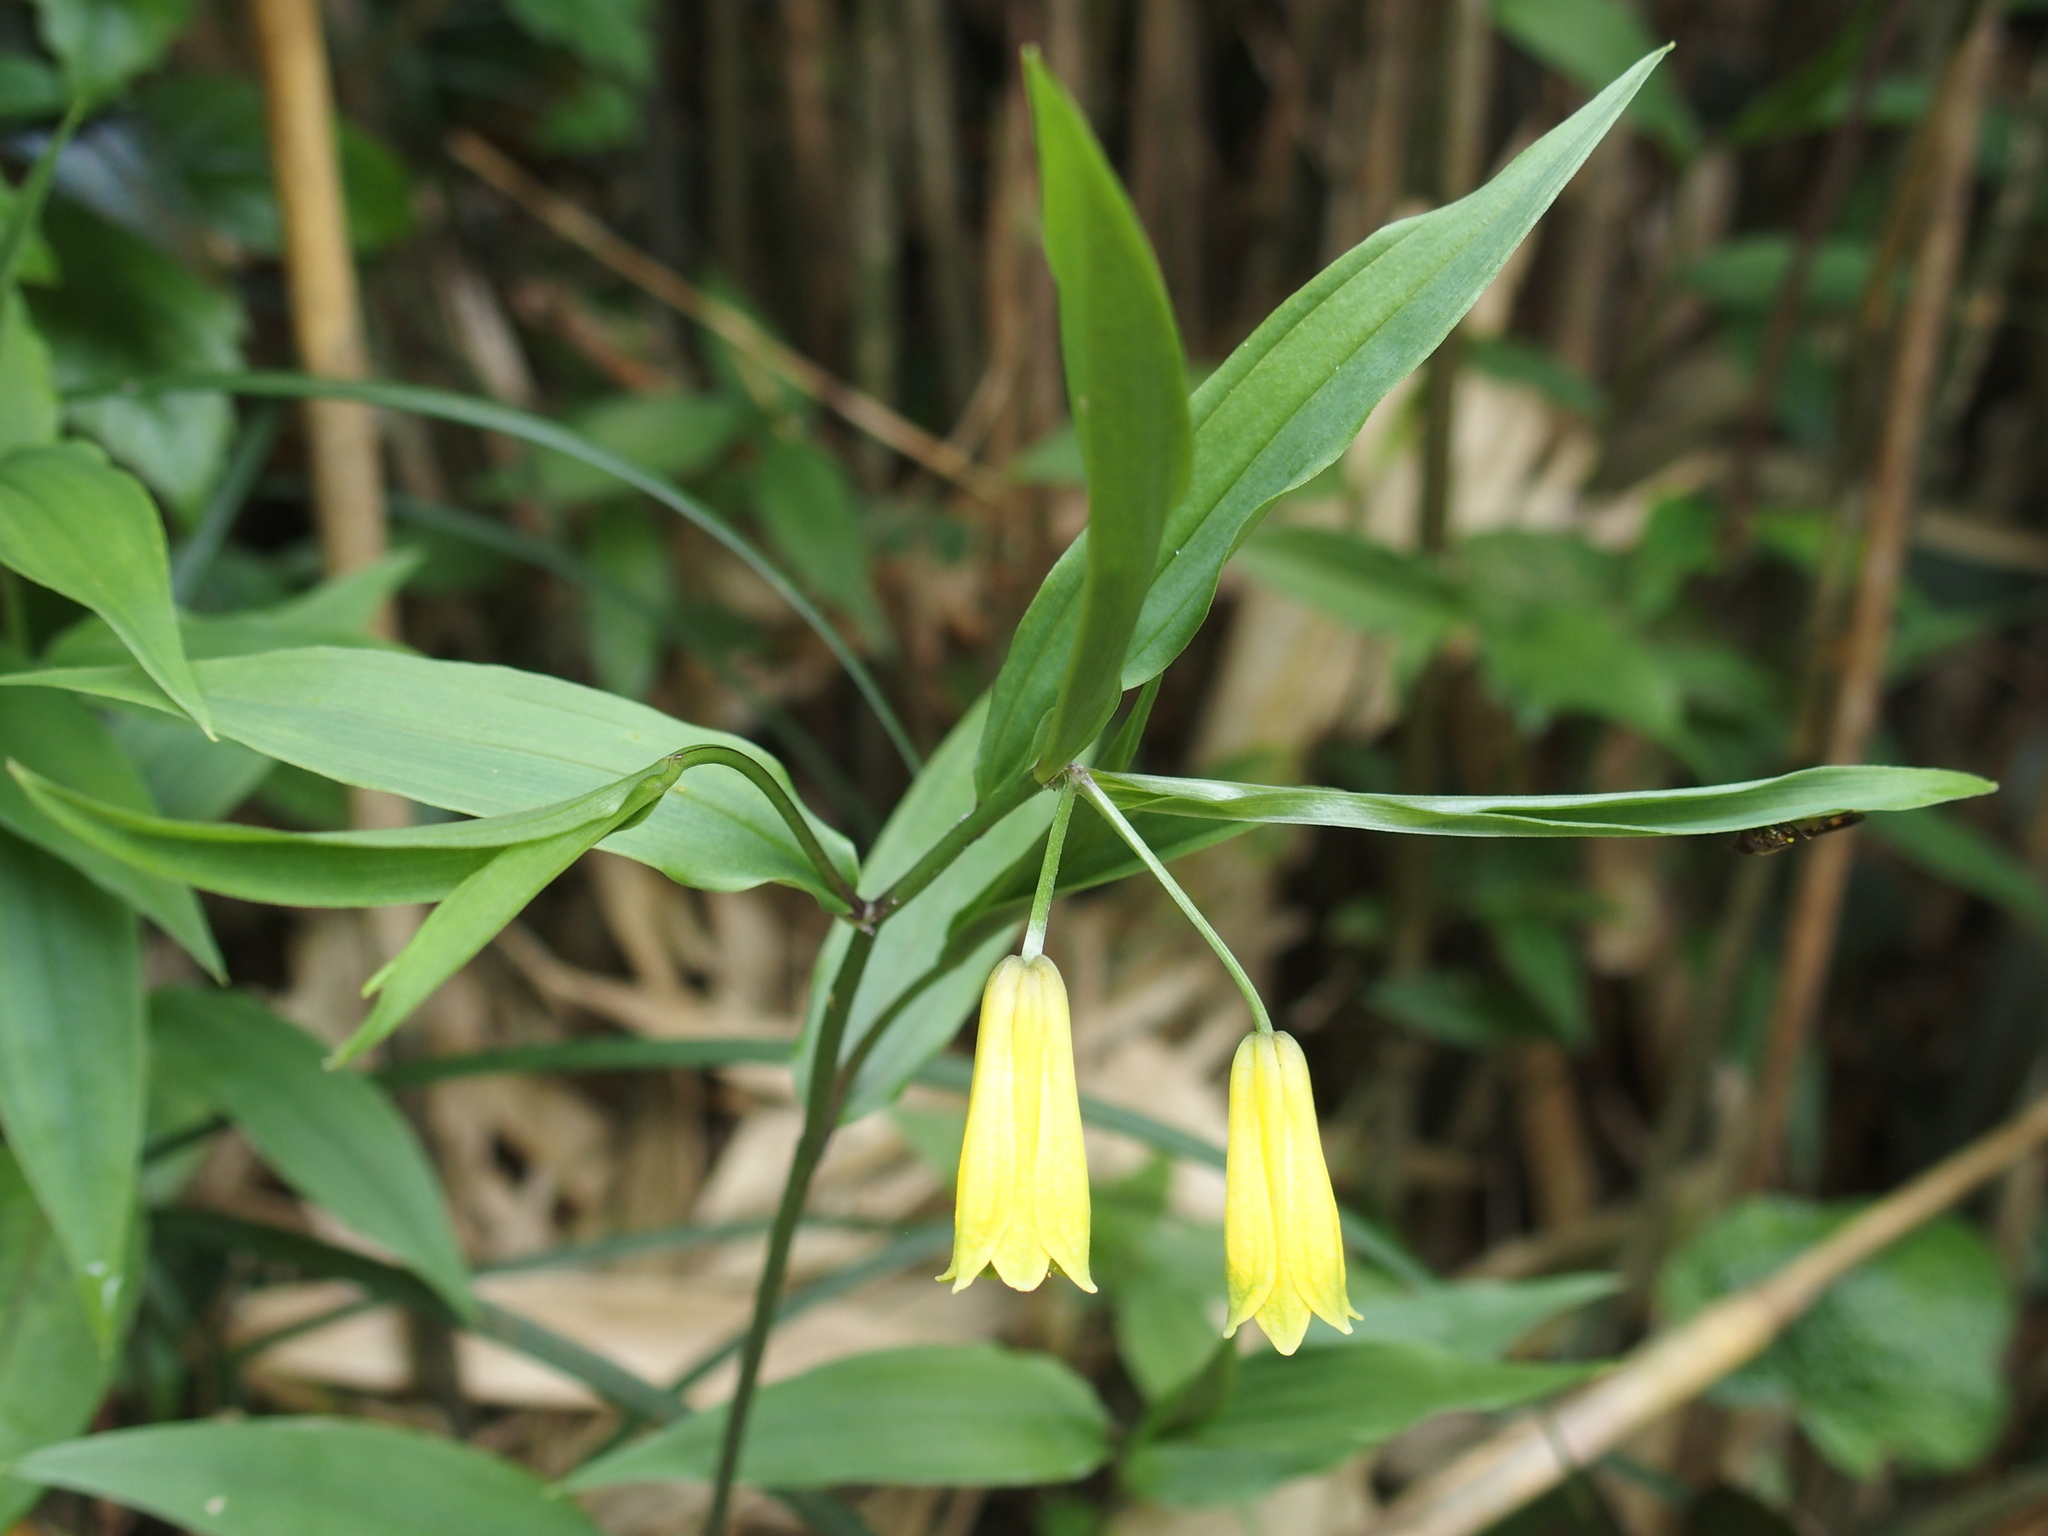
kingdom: Plantae
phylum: Tracheophyta
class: Liliopsida
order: Liliales
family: Colchicaceae
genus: Disporum
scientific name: Disporum shimadae
